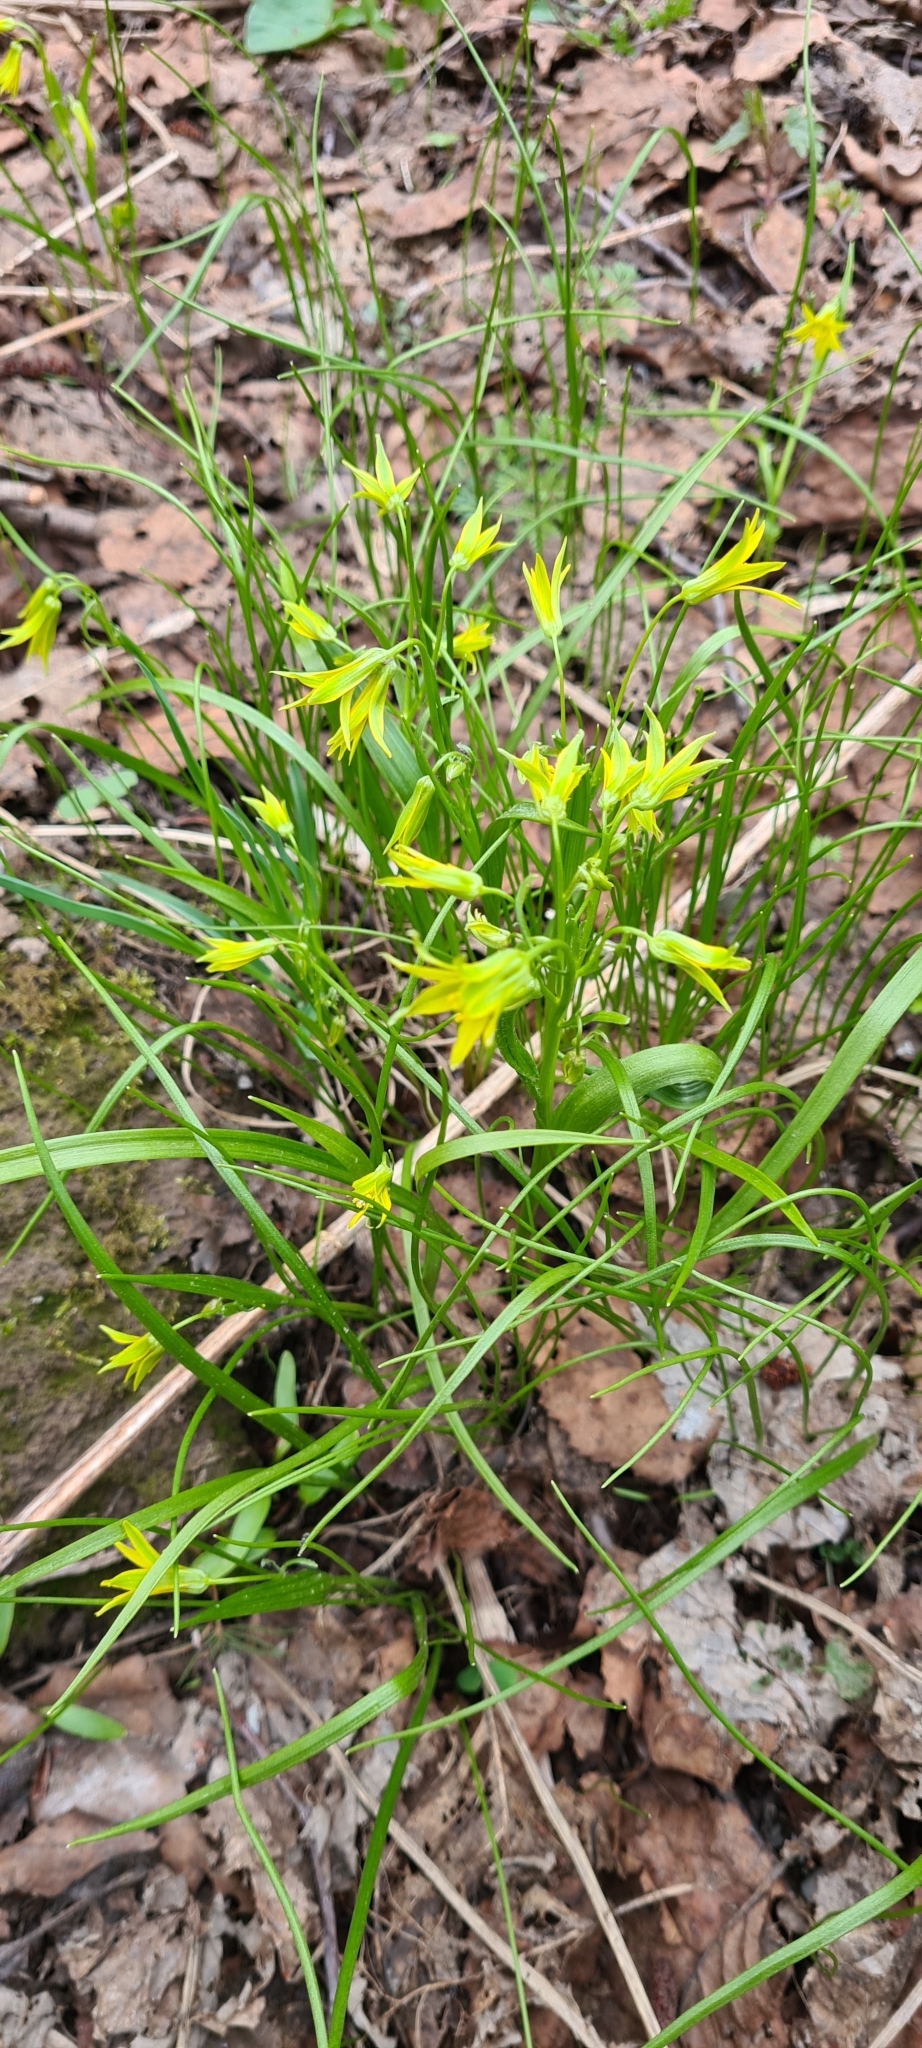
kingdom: Plantae
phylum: Tracheophyta
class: Liliopsida
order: Liliales
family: Liliaceae
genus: Gagea
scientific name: Gagea minima
